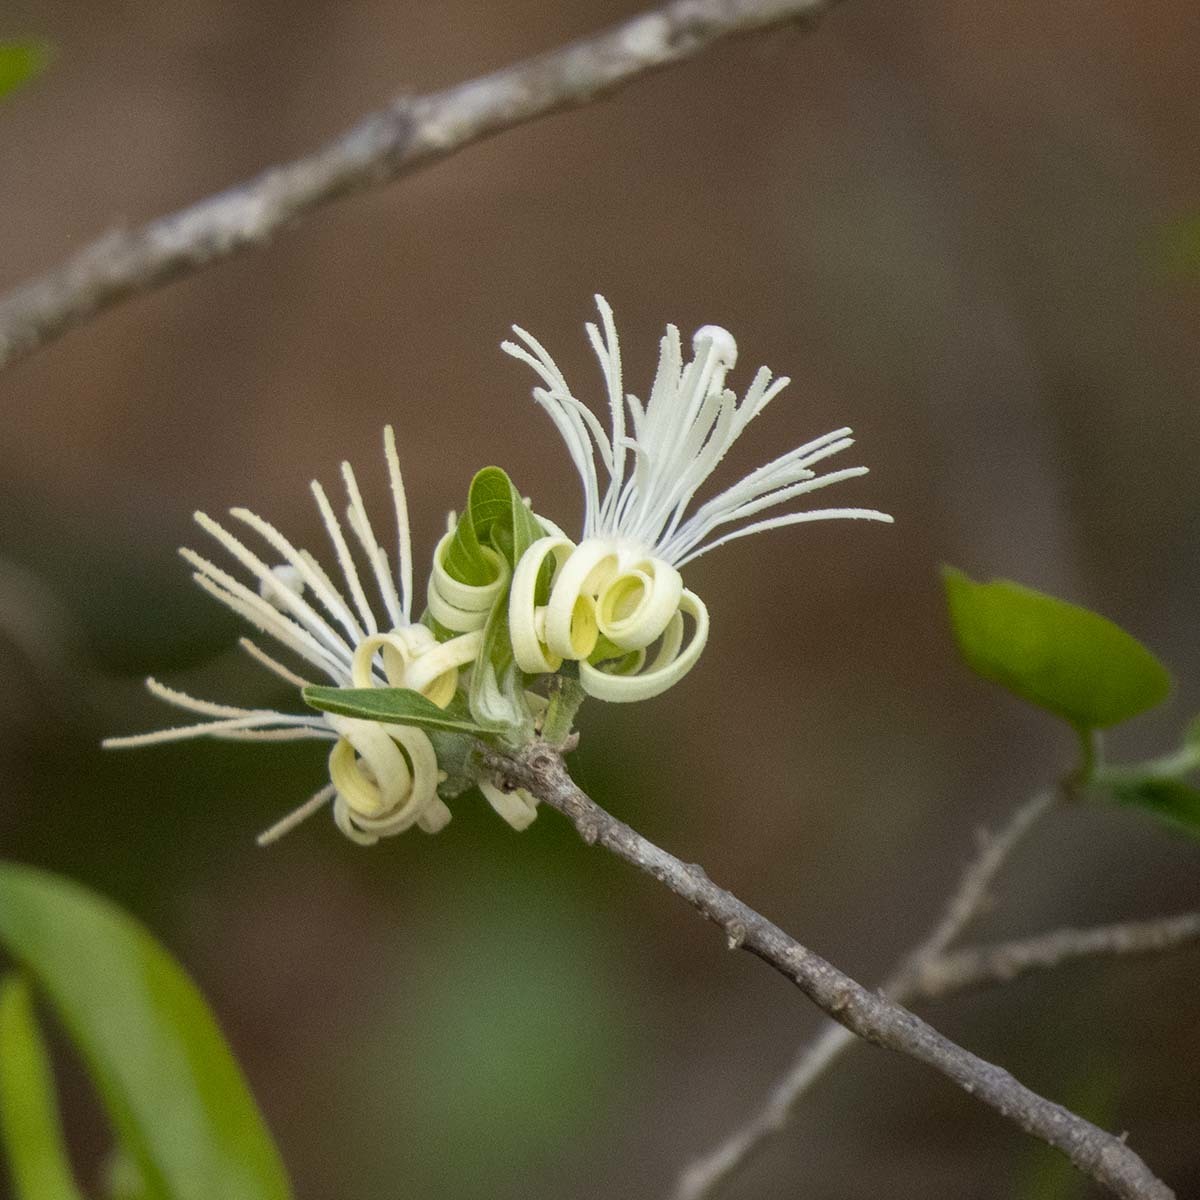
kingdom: Plantae
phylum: Tracheophyta
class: Magnoliopsida
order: Cornales
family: Cornaceae
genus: Alangium
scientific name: Alangium salviifolium
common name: Sage-leaf alangium
